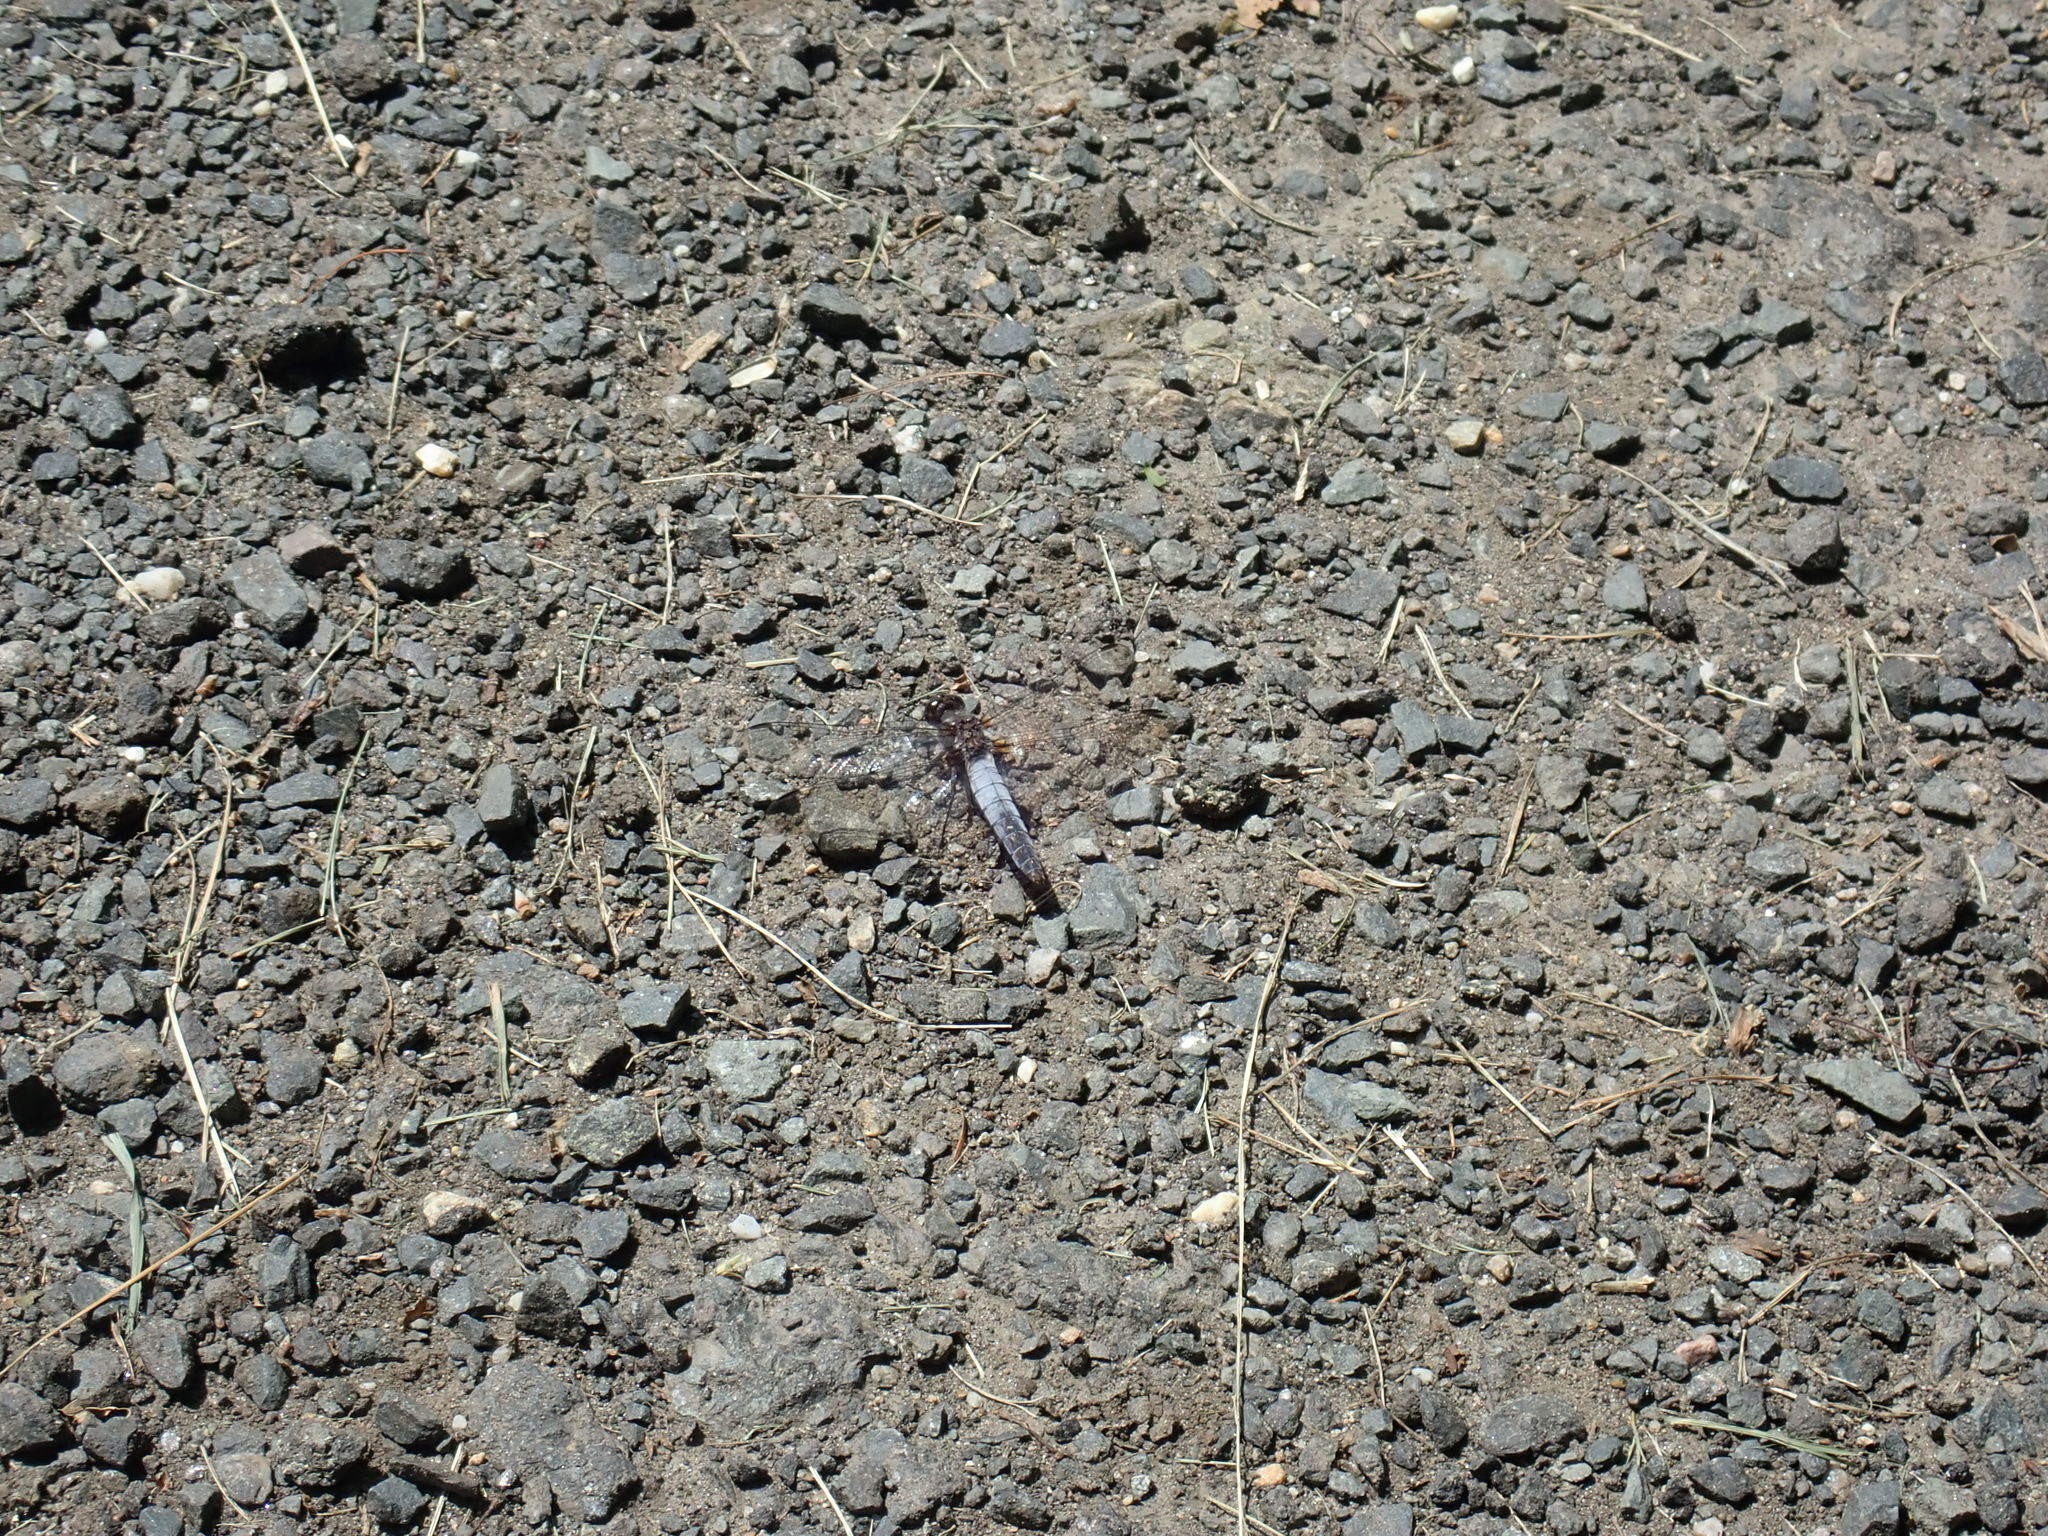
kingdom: Animalia
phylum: Arthropoda
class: Insecta
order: Odonata
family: Libellulidae
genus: Ladona
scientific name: Ladona exusta
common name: Libellule embrasée
